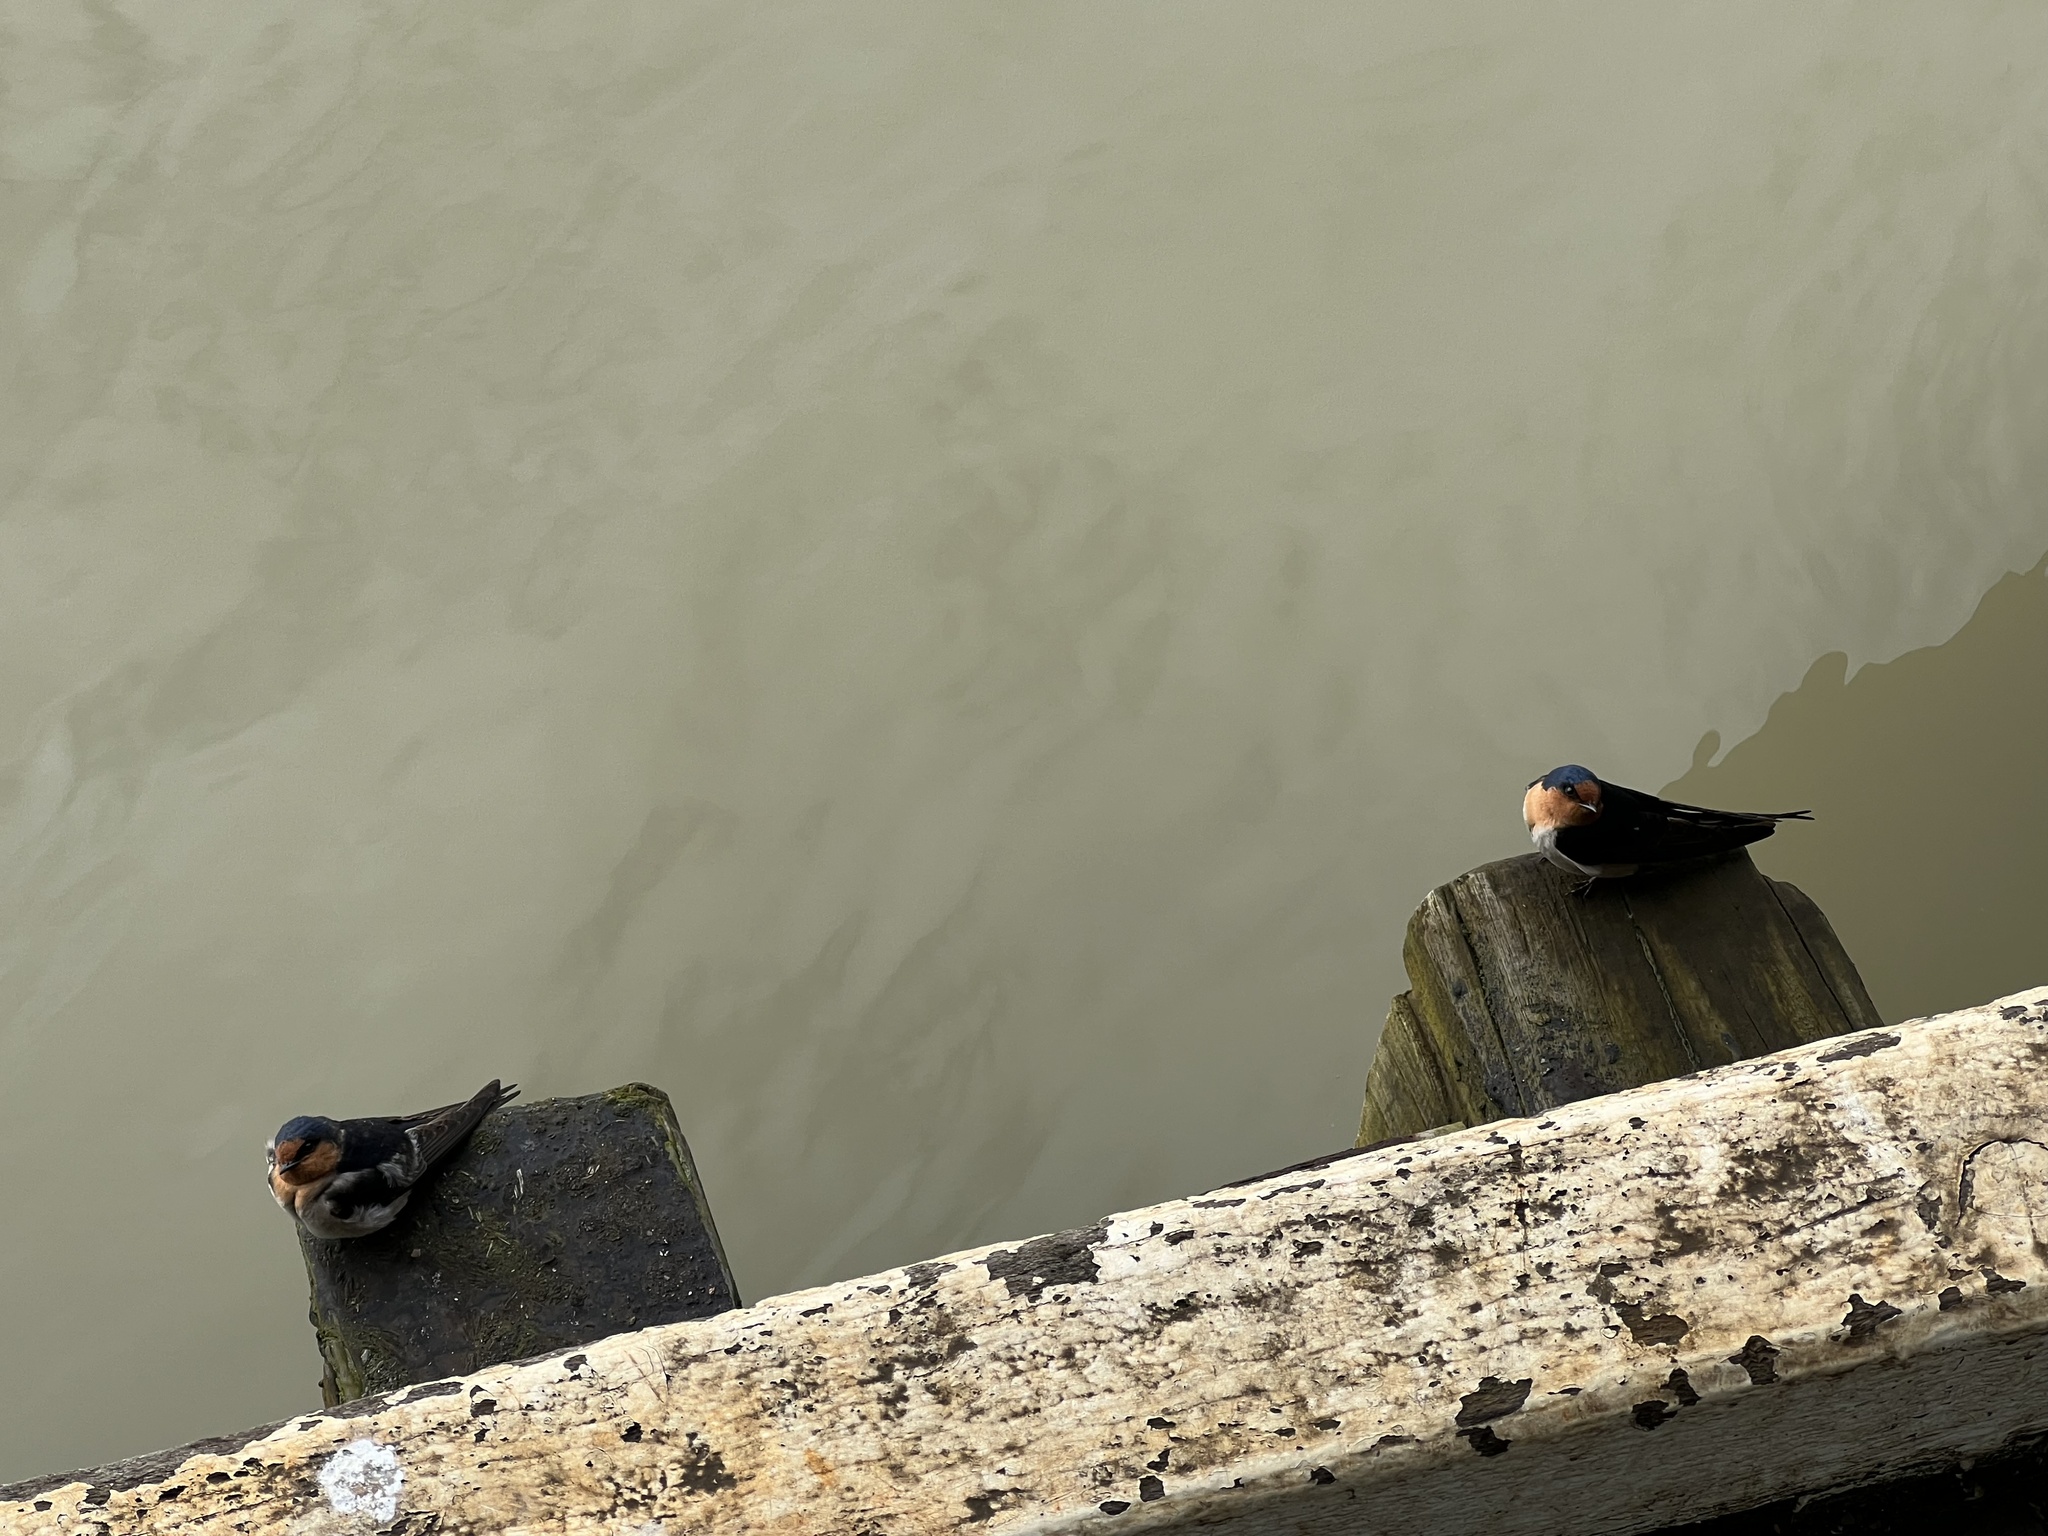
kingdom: Animalia
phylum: Chordata
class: Aves
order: Passeriformes
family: Hirundinidae
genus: Hirundo
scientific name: Hirundo neoxena
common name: Welcome swallow
